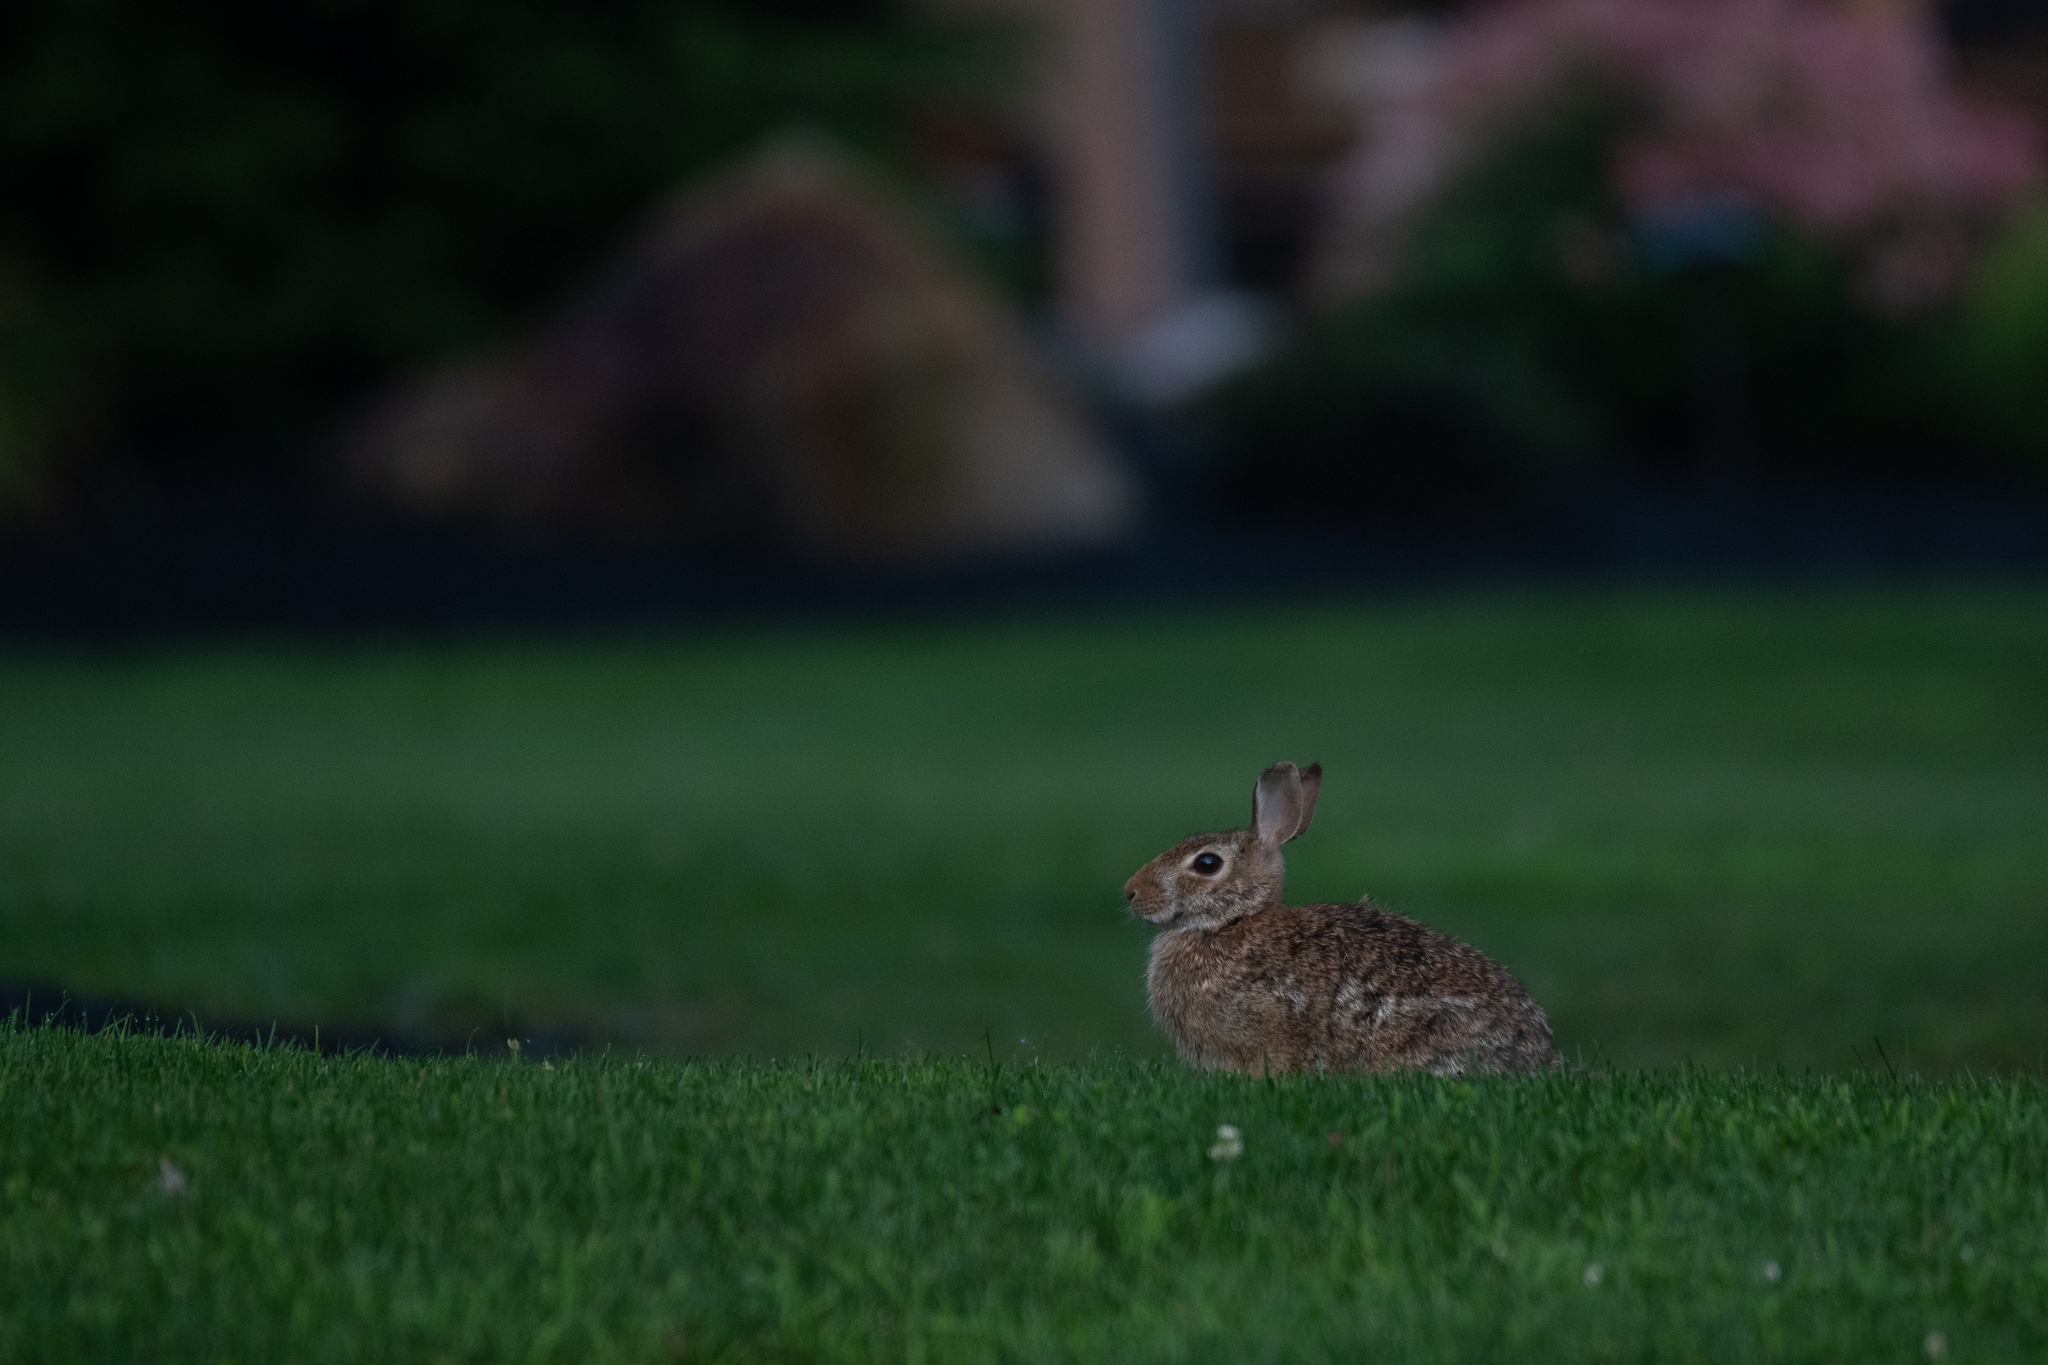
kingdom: Animalia
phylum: Chordata
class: Mammalia
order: Lagomorpha
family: Leporidae
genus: Sylvilagus
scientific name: Sylvilagus floridanus
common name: Eastern cottontail
